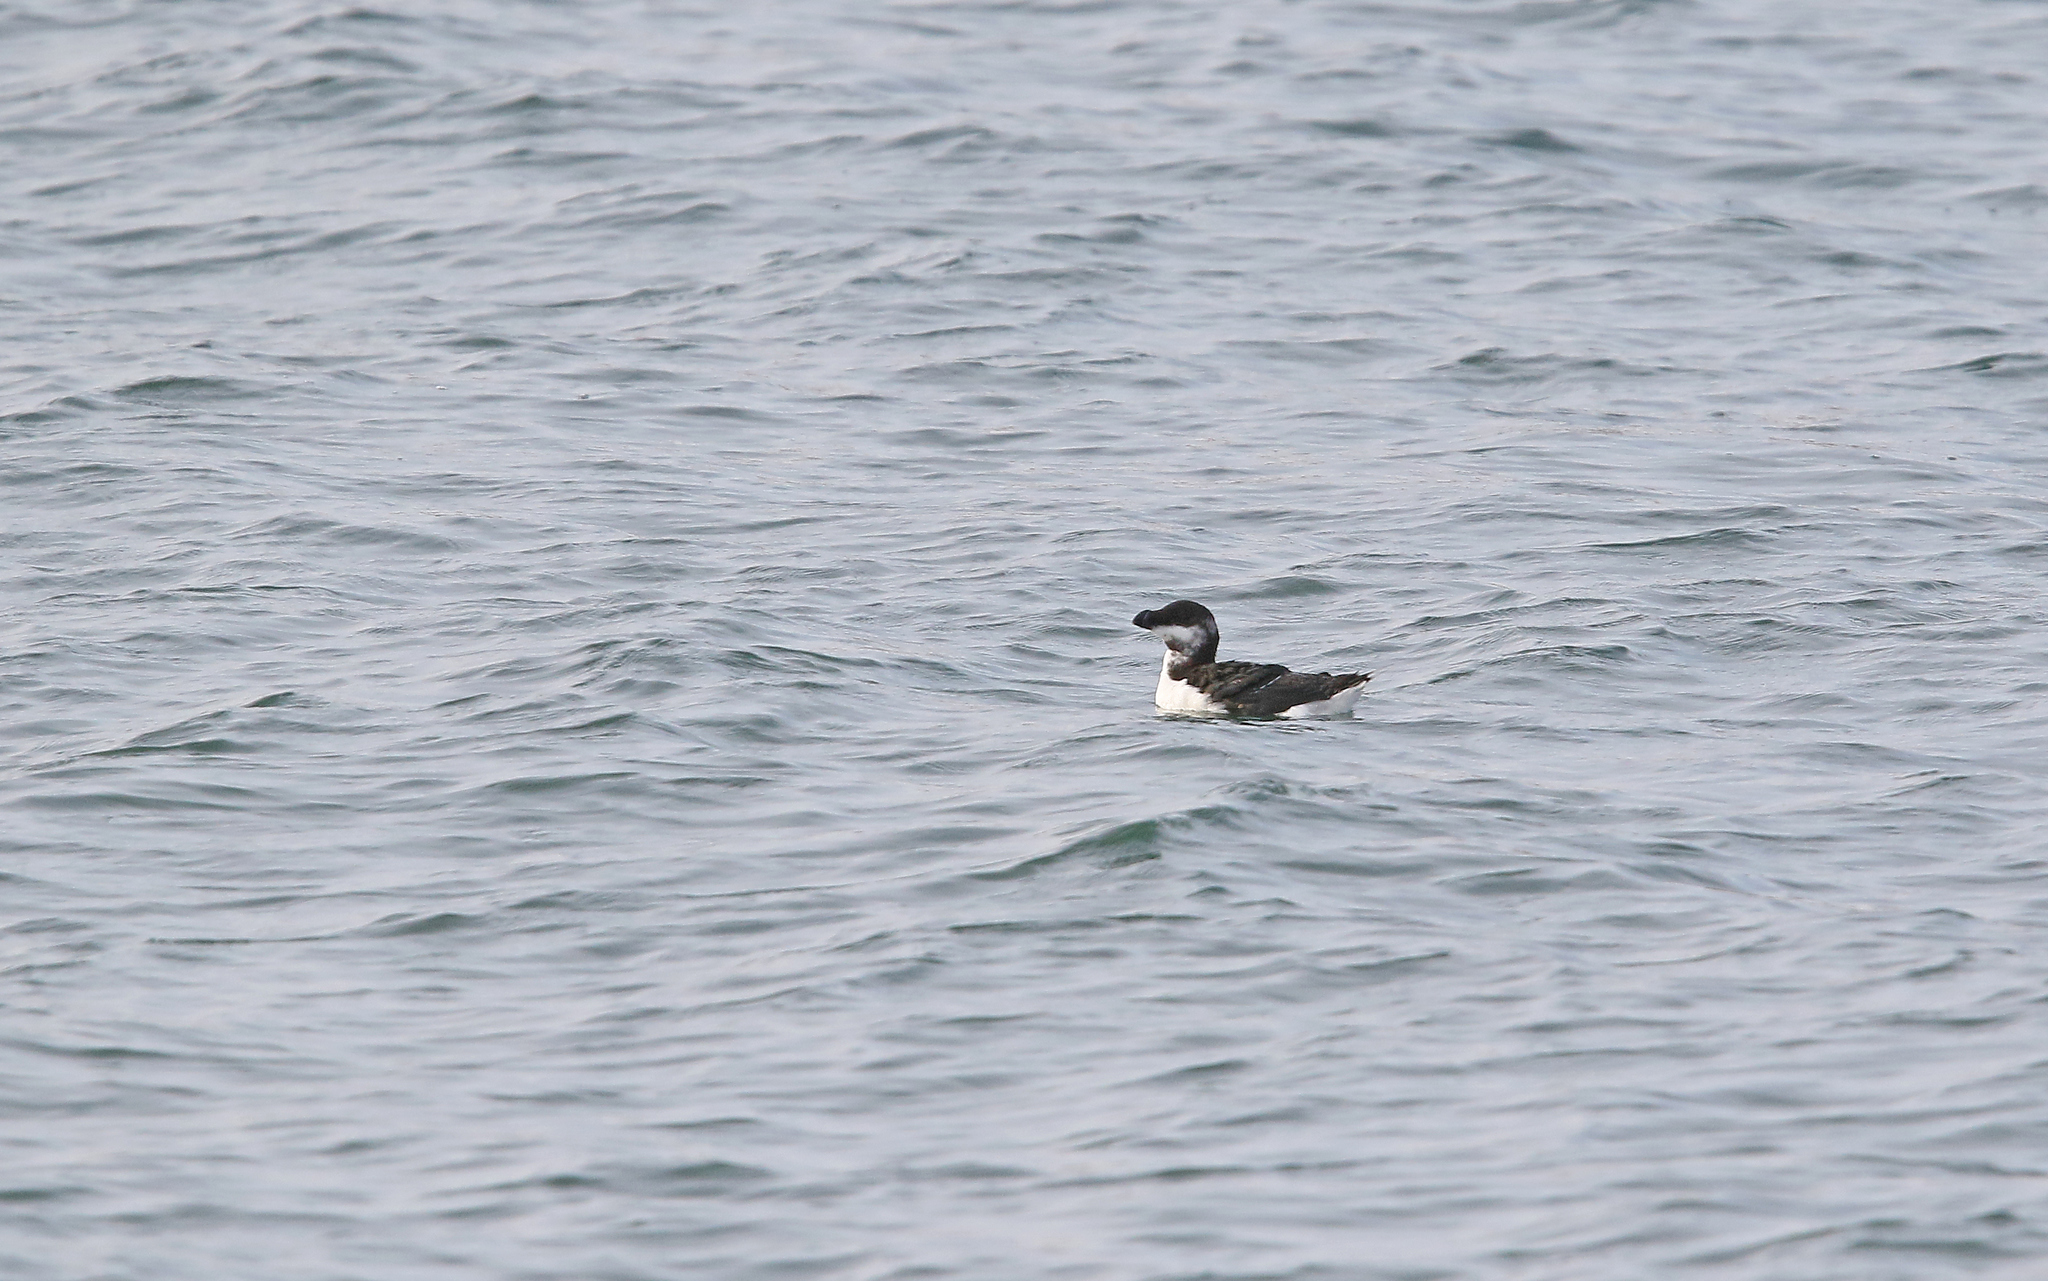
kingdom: Animalia
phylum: Chordata
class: Aves
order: Charadriiformes
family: Alcidae
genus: Alca
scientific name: Alca torda
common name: Razorbill
